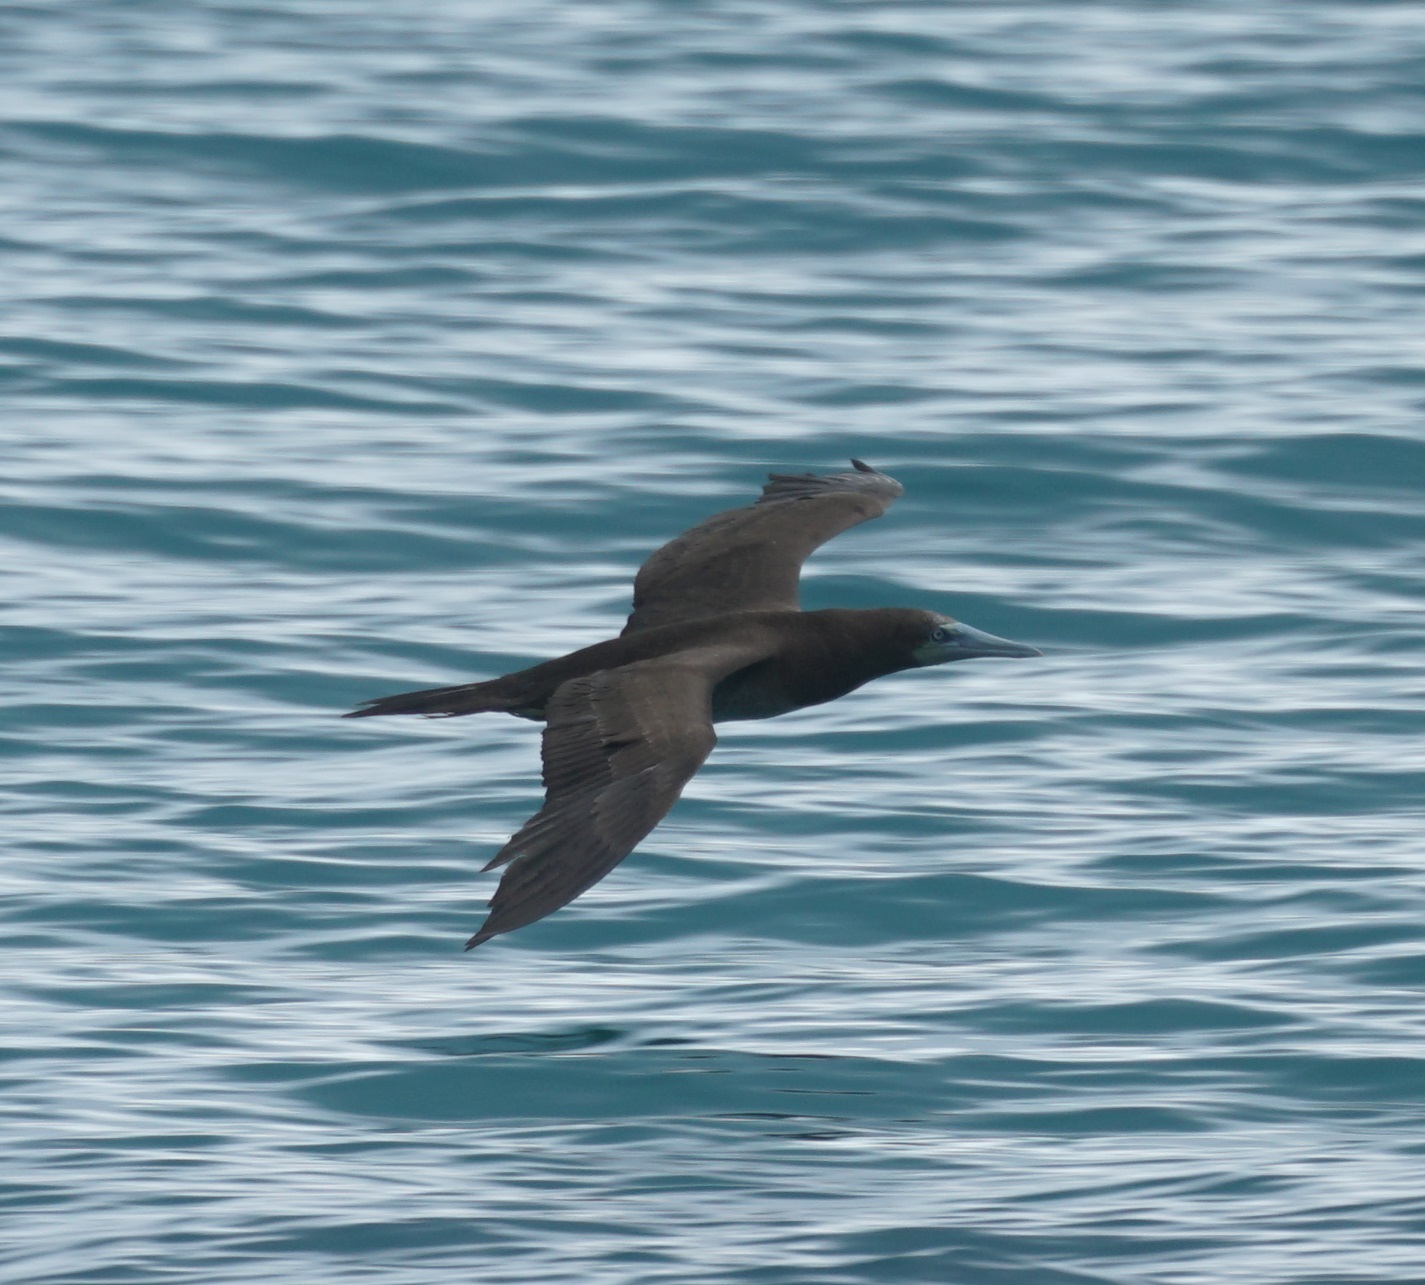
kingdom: Animalia
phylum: Chordata
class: Aves
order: Suliformes
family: Sulidae
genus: Sula
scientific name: Sula leucogaster
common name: Brown booby
